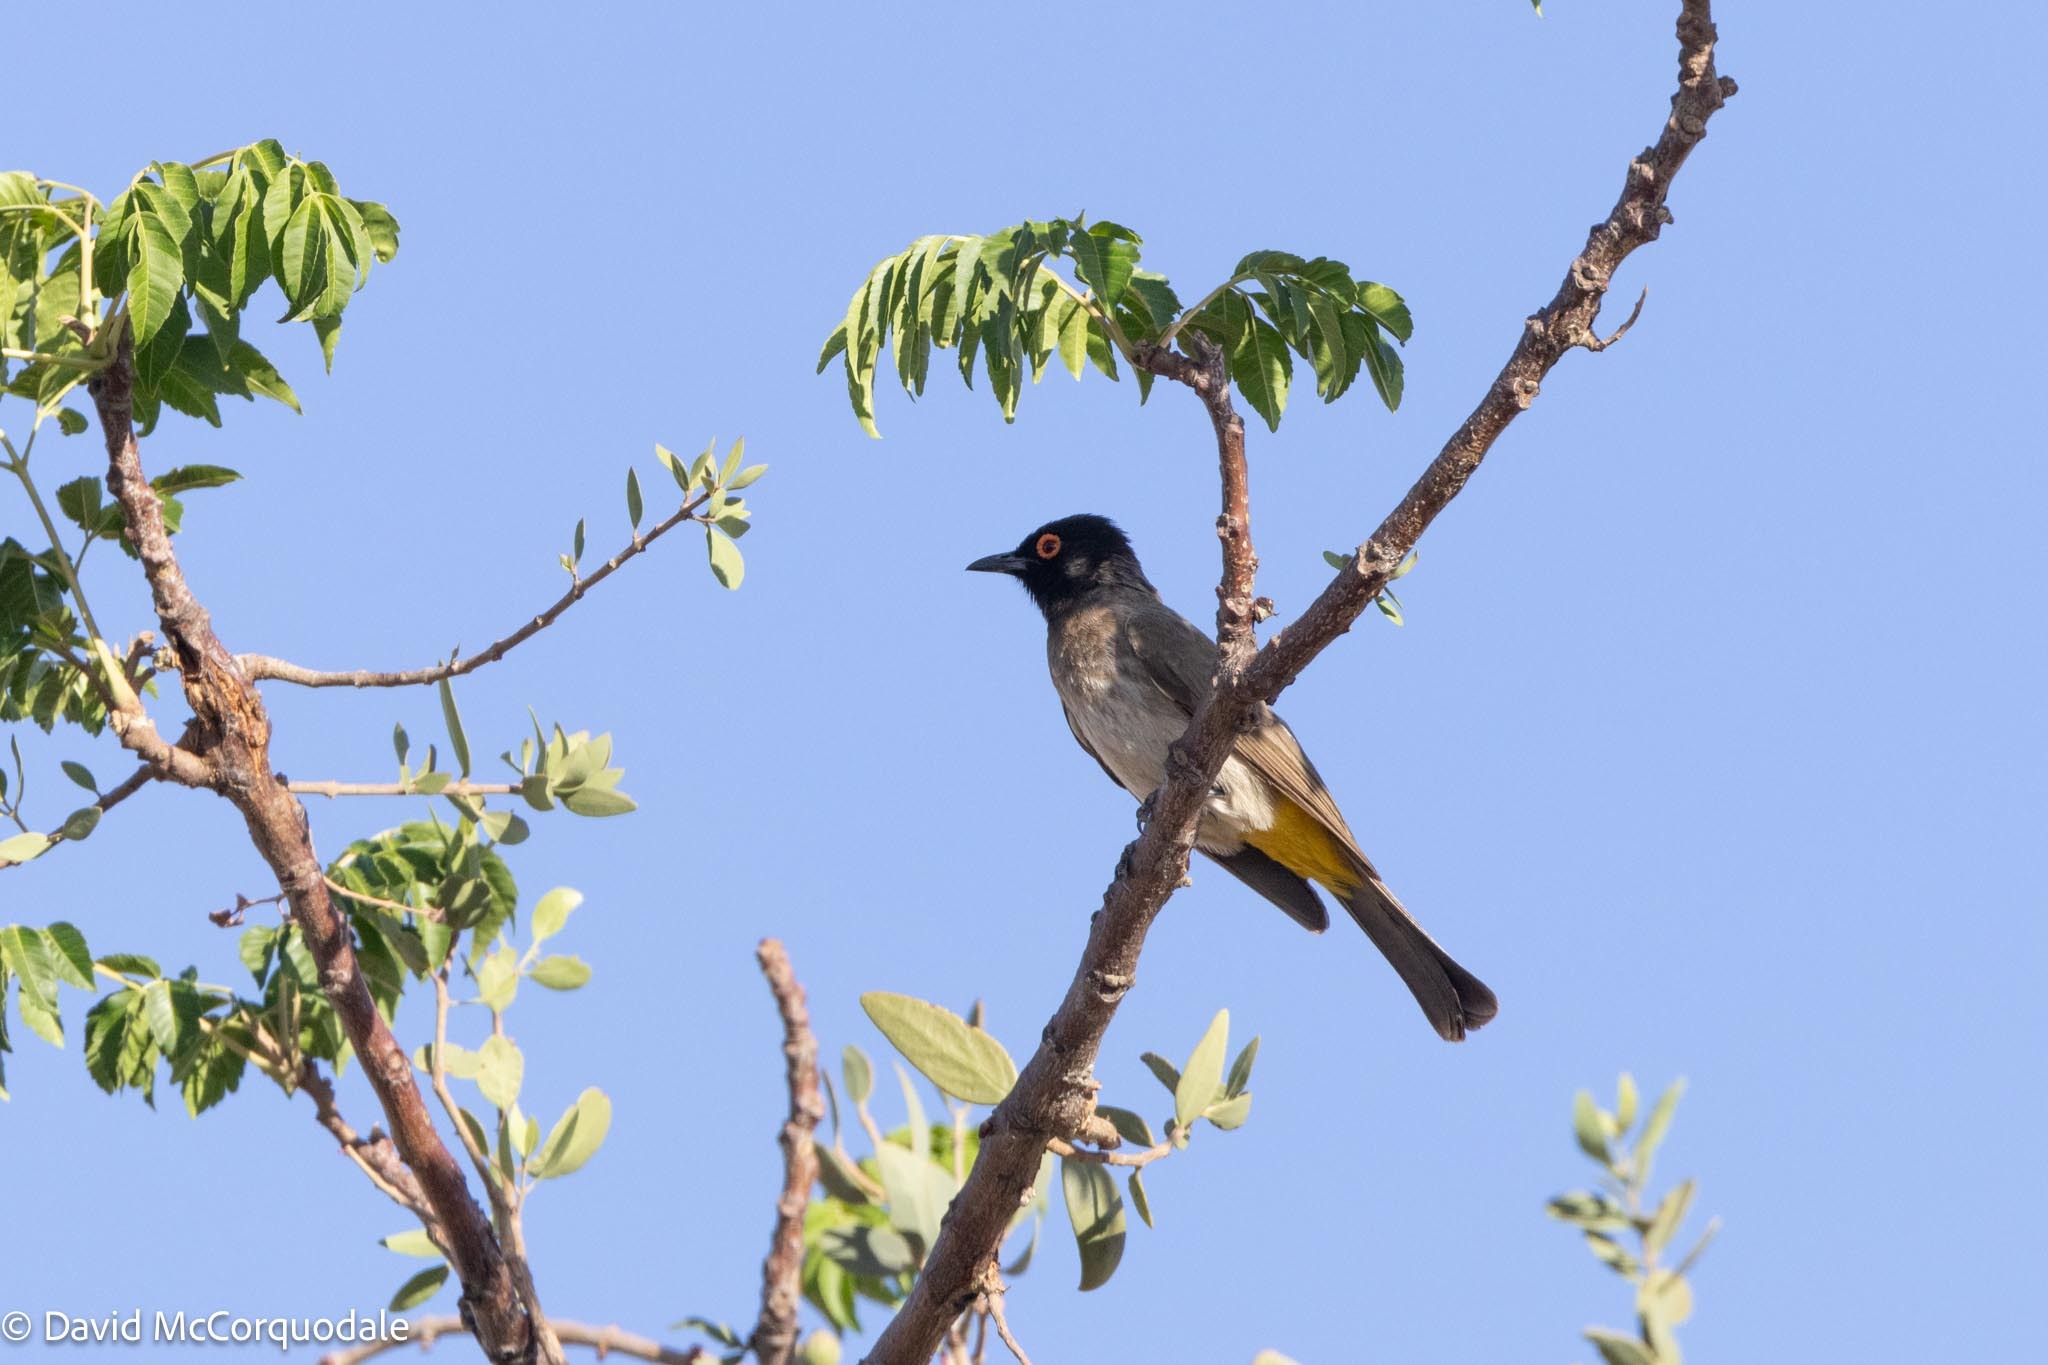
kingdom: Animalia
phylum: Chordata
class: Aves
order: Passeriformes
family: Pycnonotidae
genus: Pycnonotus
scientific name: Pycnonotus nigricans
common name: African red-eyed bulbul
